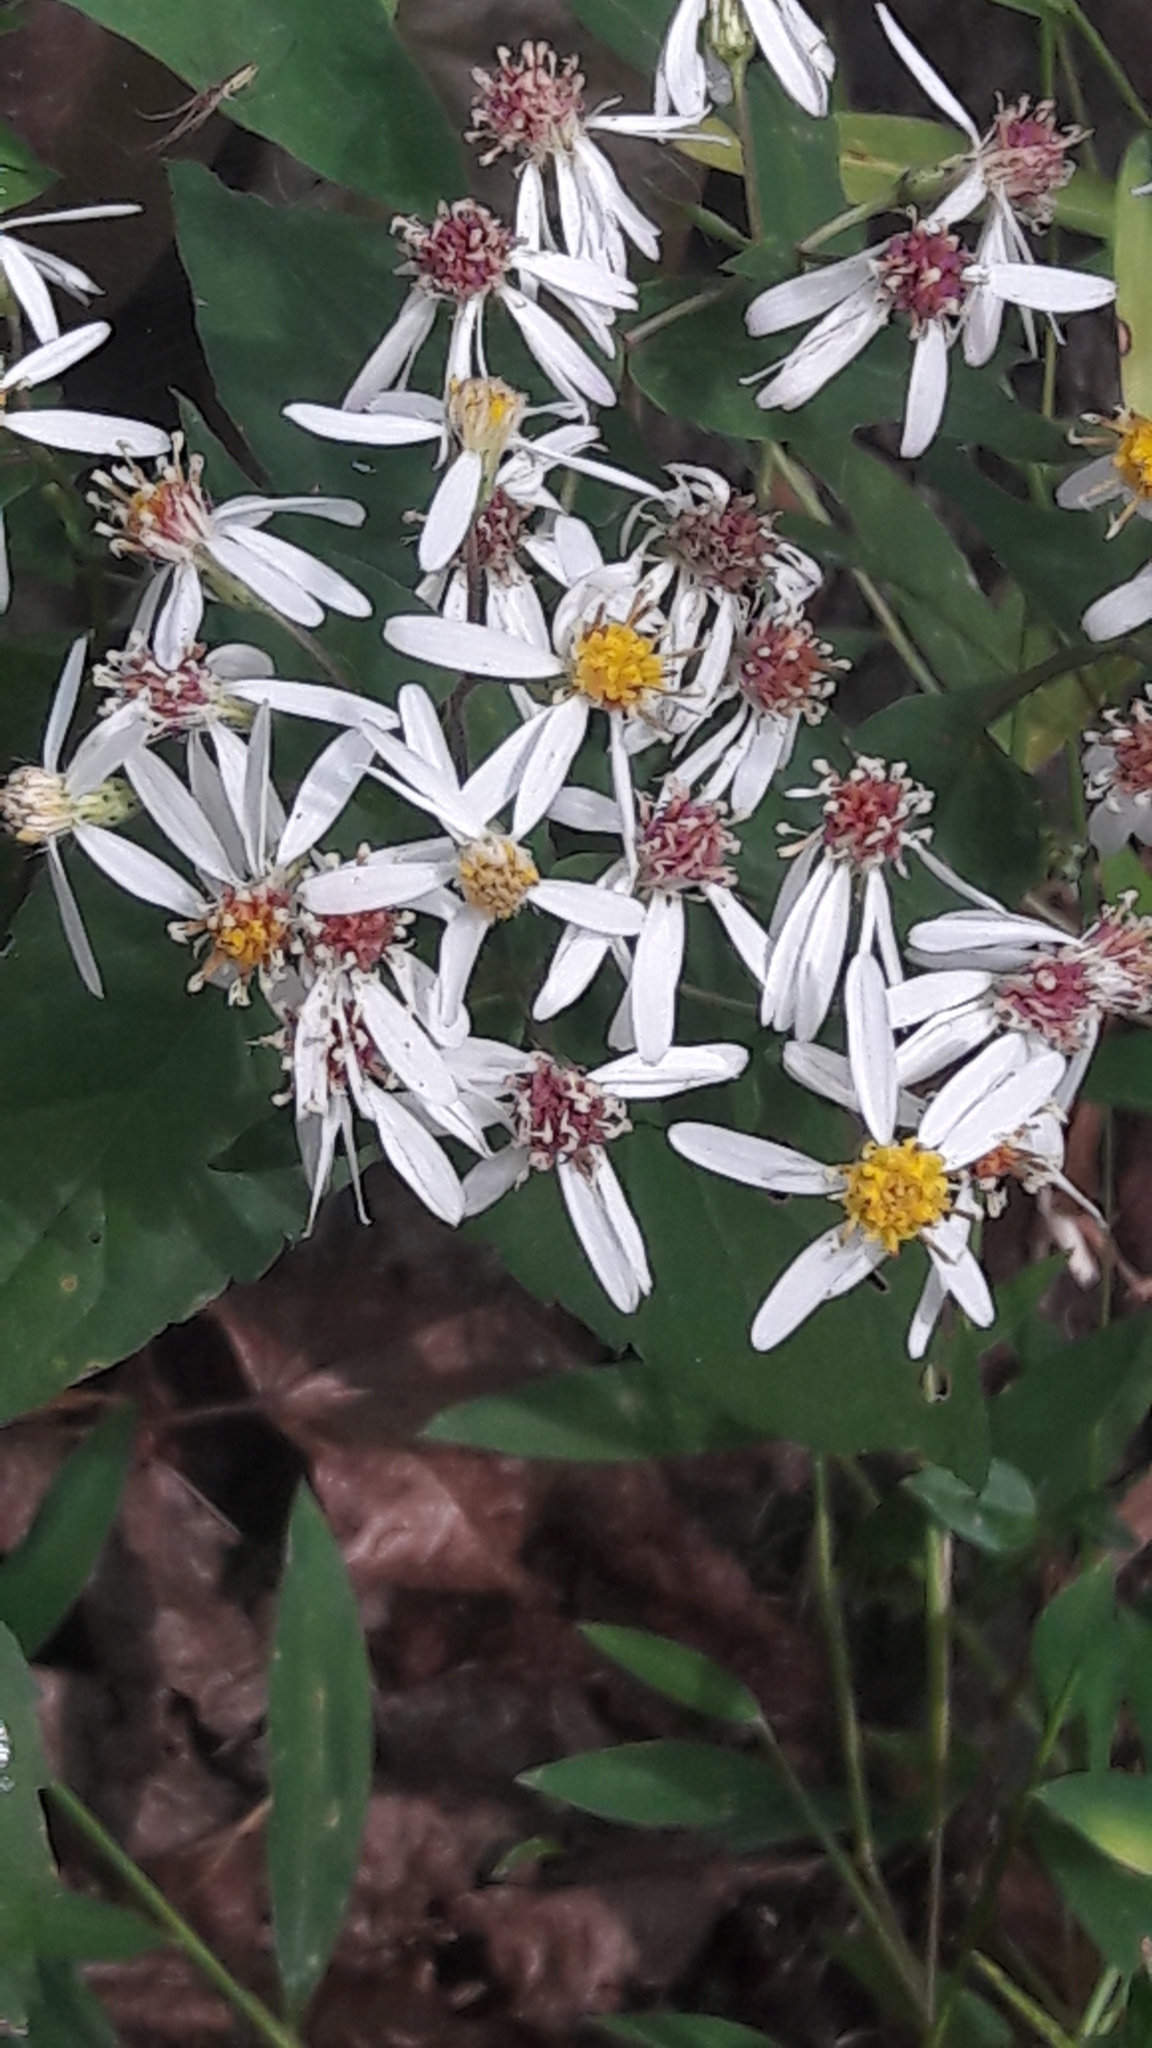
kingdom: Plantae
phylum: Tracheophyta
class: Magnoliopsida
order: Asterales
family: Asteraceae
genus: Eurybia
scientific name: Eurybia divaricata
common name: White wood aster
